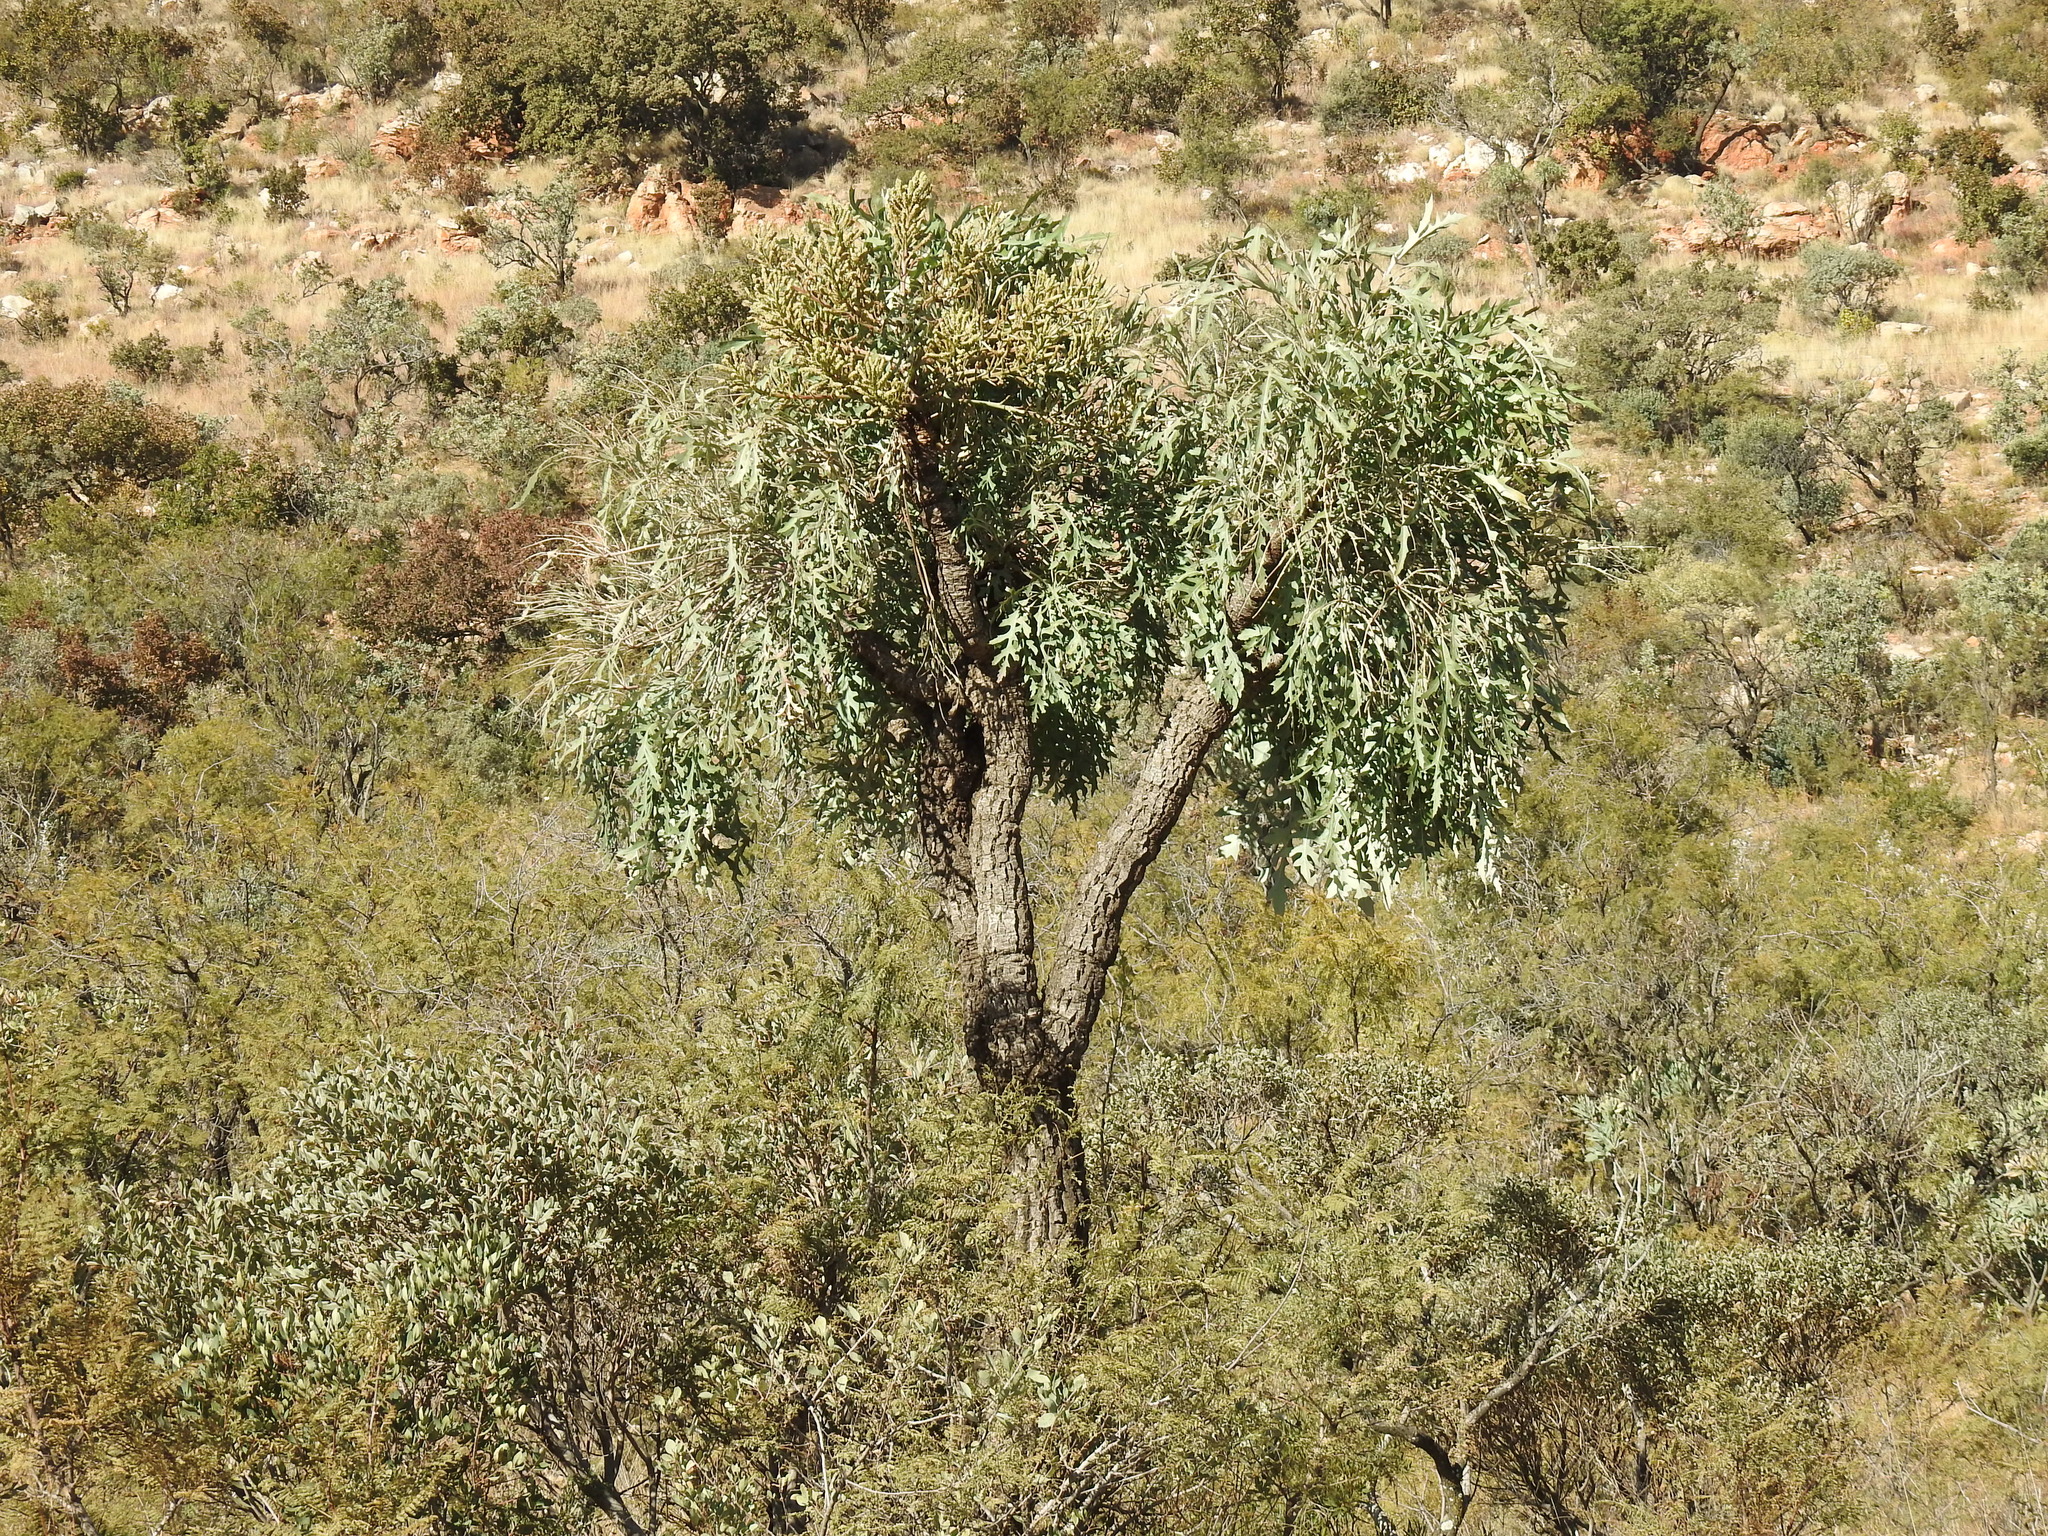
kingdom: Plantae
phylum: Tracheophyta
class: Magnoliopsida
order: Apiales
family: Araliaceae
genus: Cussonia
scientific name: Cussonia paniculata
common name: Cabbagetree
